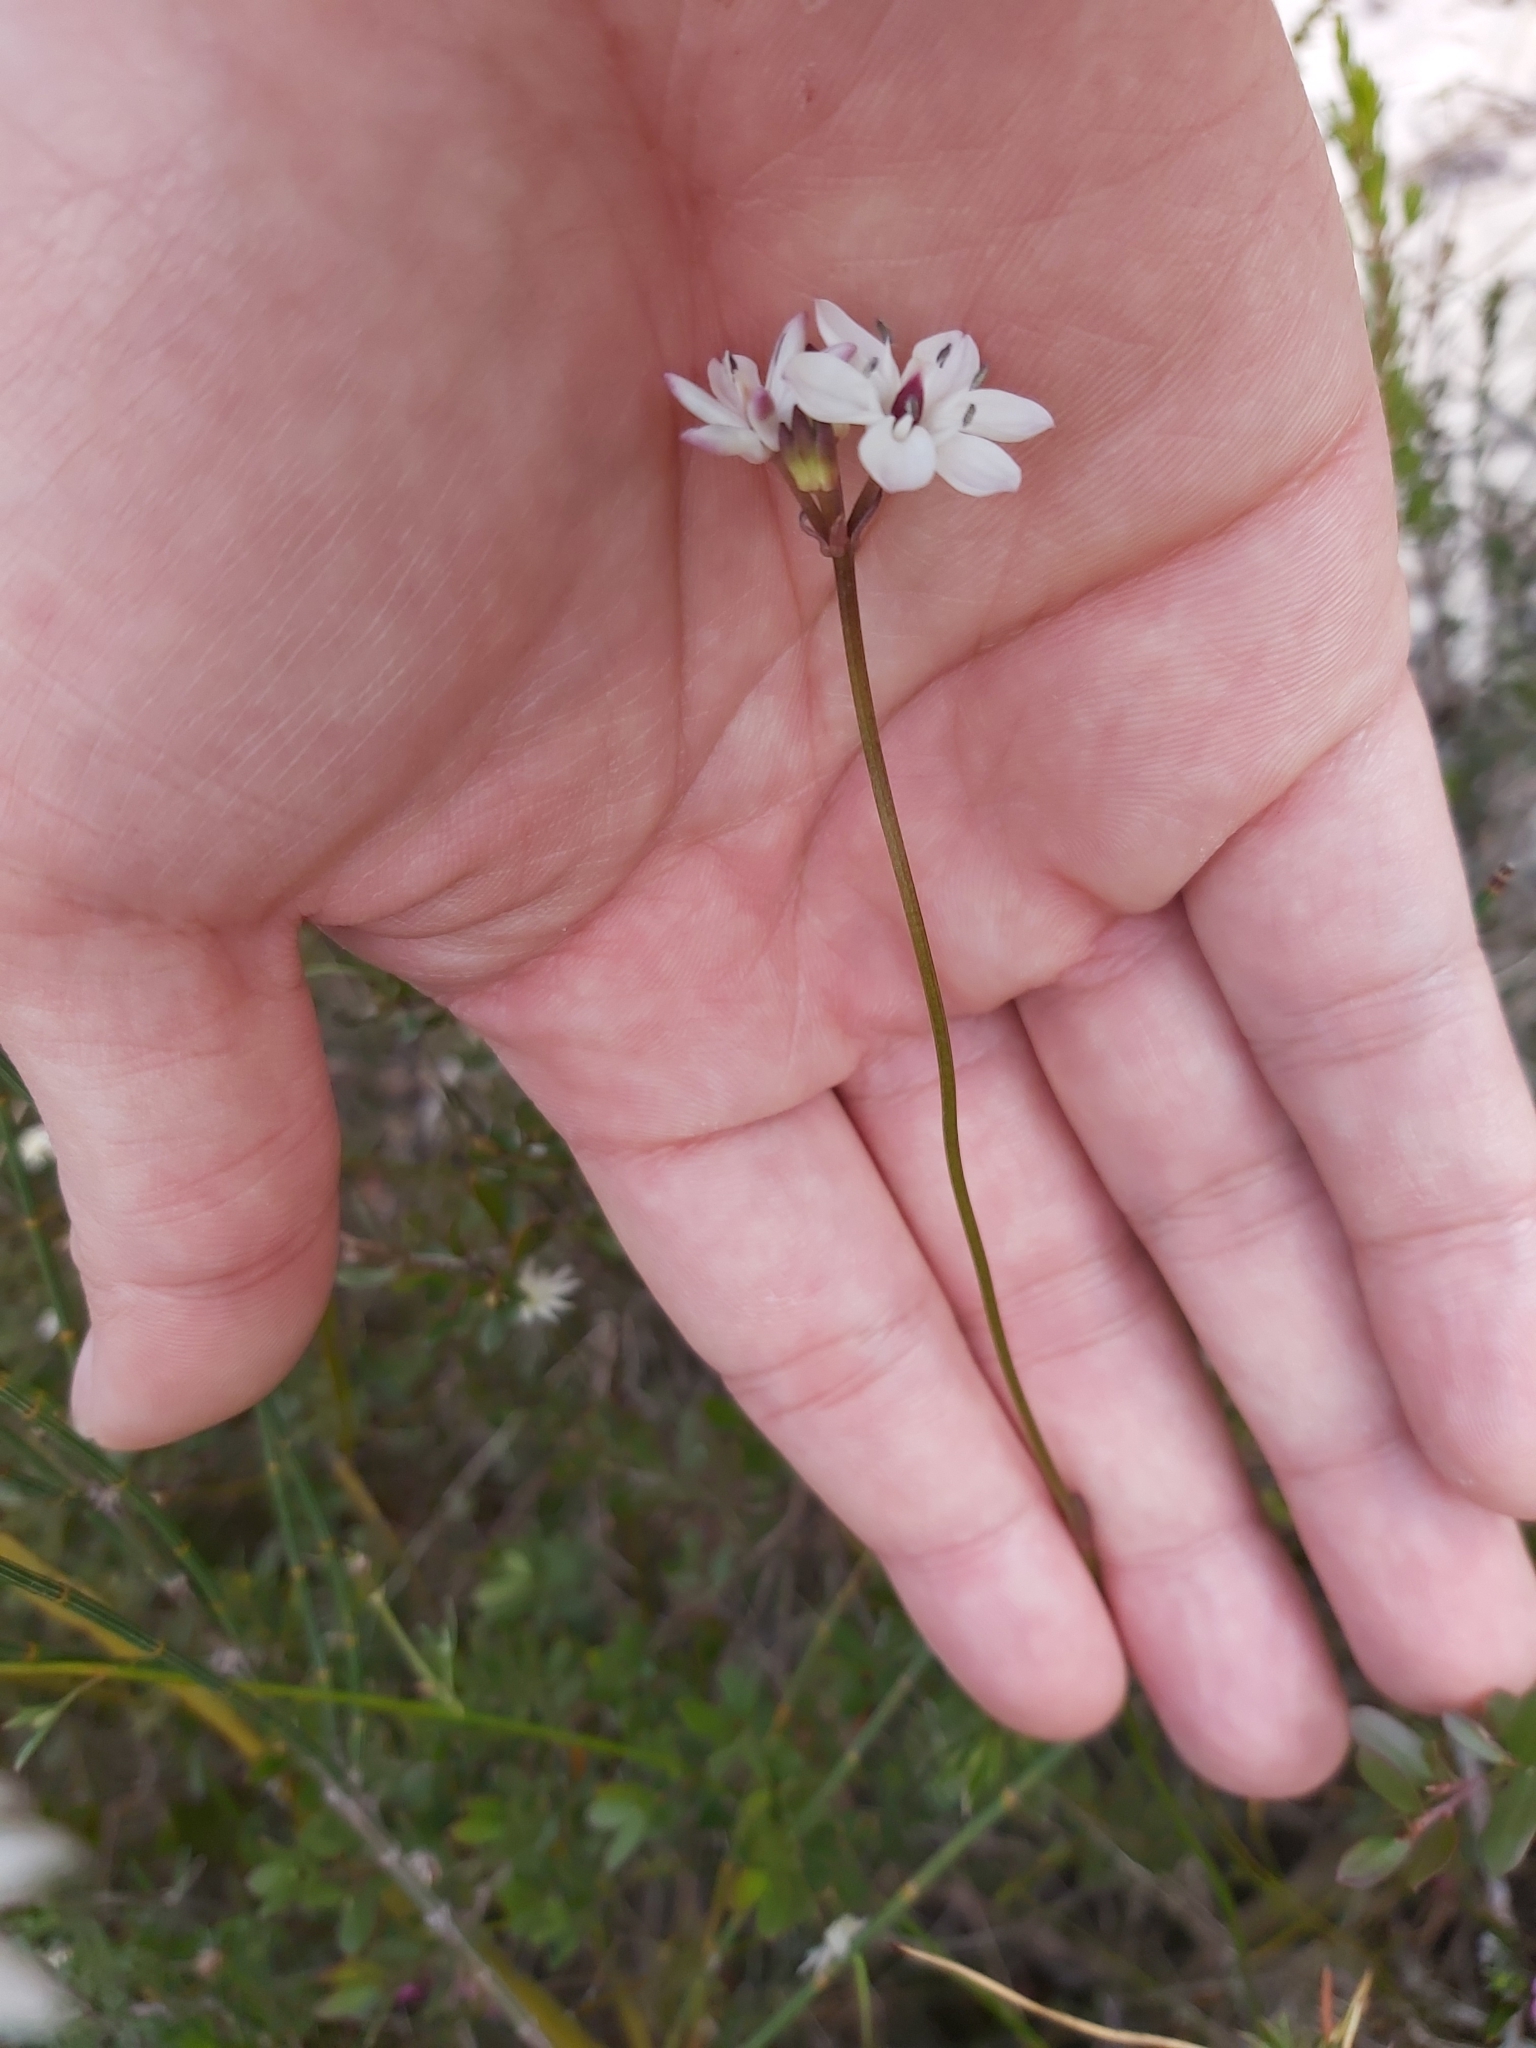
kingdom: Plantae
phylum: Tracheophyta
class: Liliopsida
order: Liliales
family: Colchicaceae
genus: Burchardia
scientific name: Burchardia umbellata
